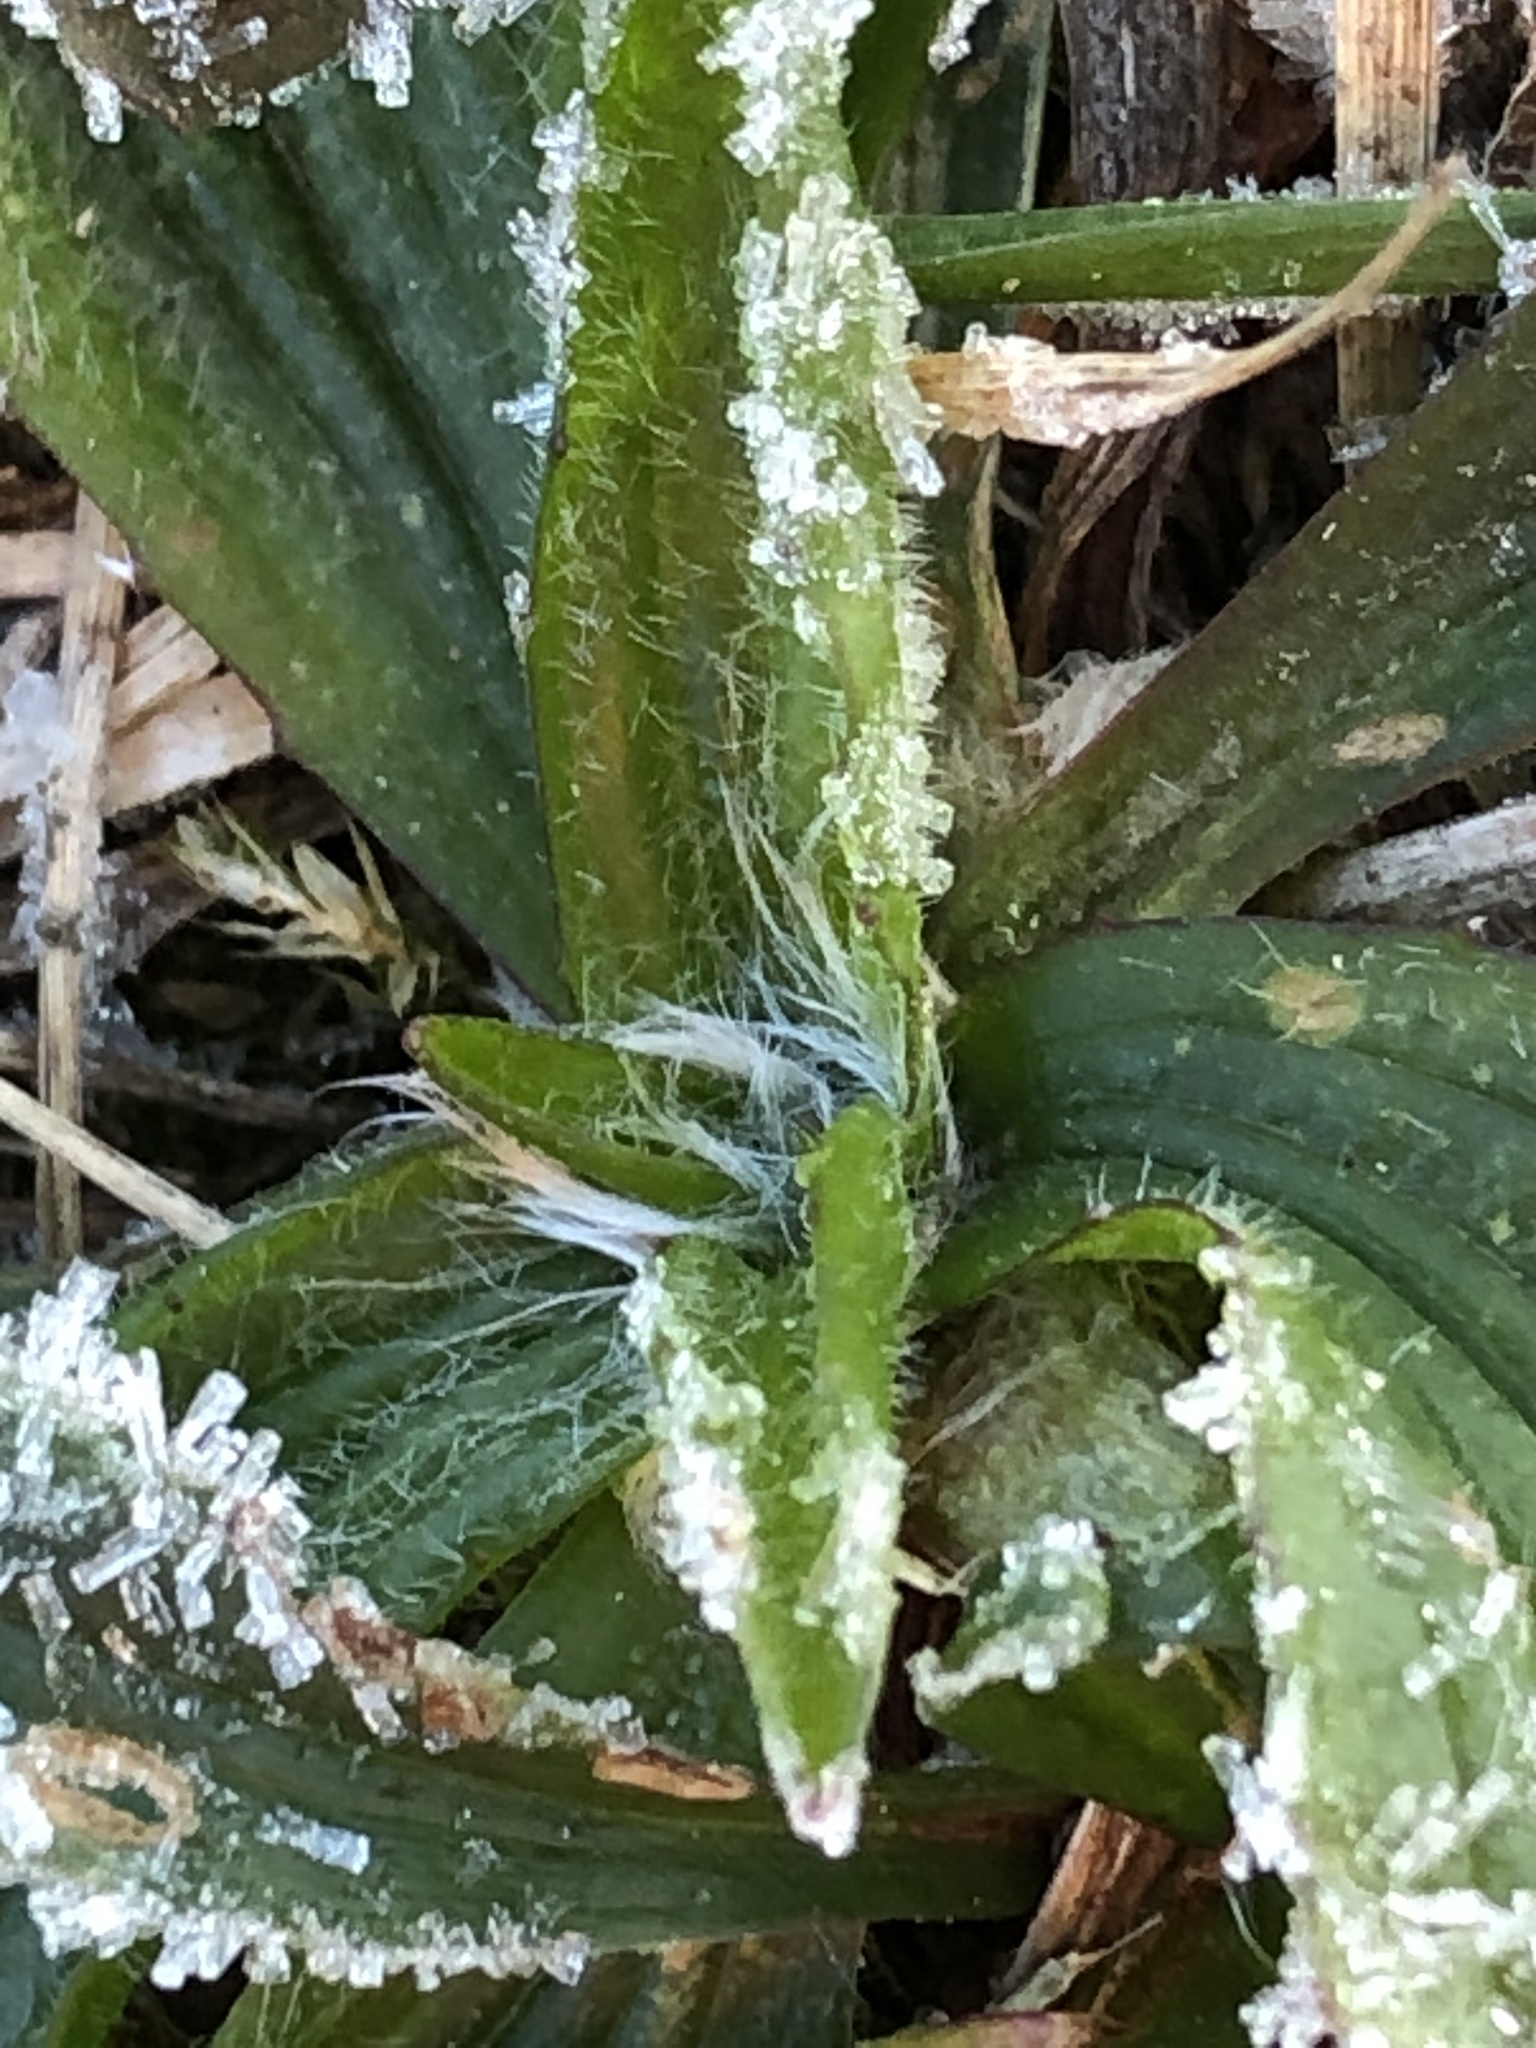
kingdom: Plantae
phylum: Tracheophyta
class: Magnoliopsida
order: Lamiales
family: Plantaginaceae
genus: Plantago
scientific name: Plantago lanceolata
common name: Ribwort plantain
